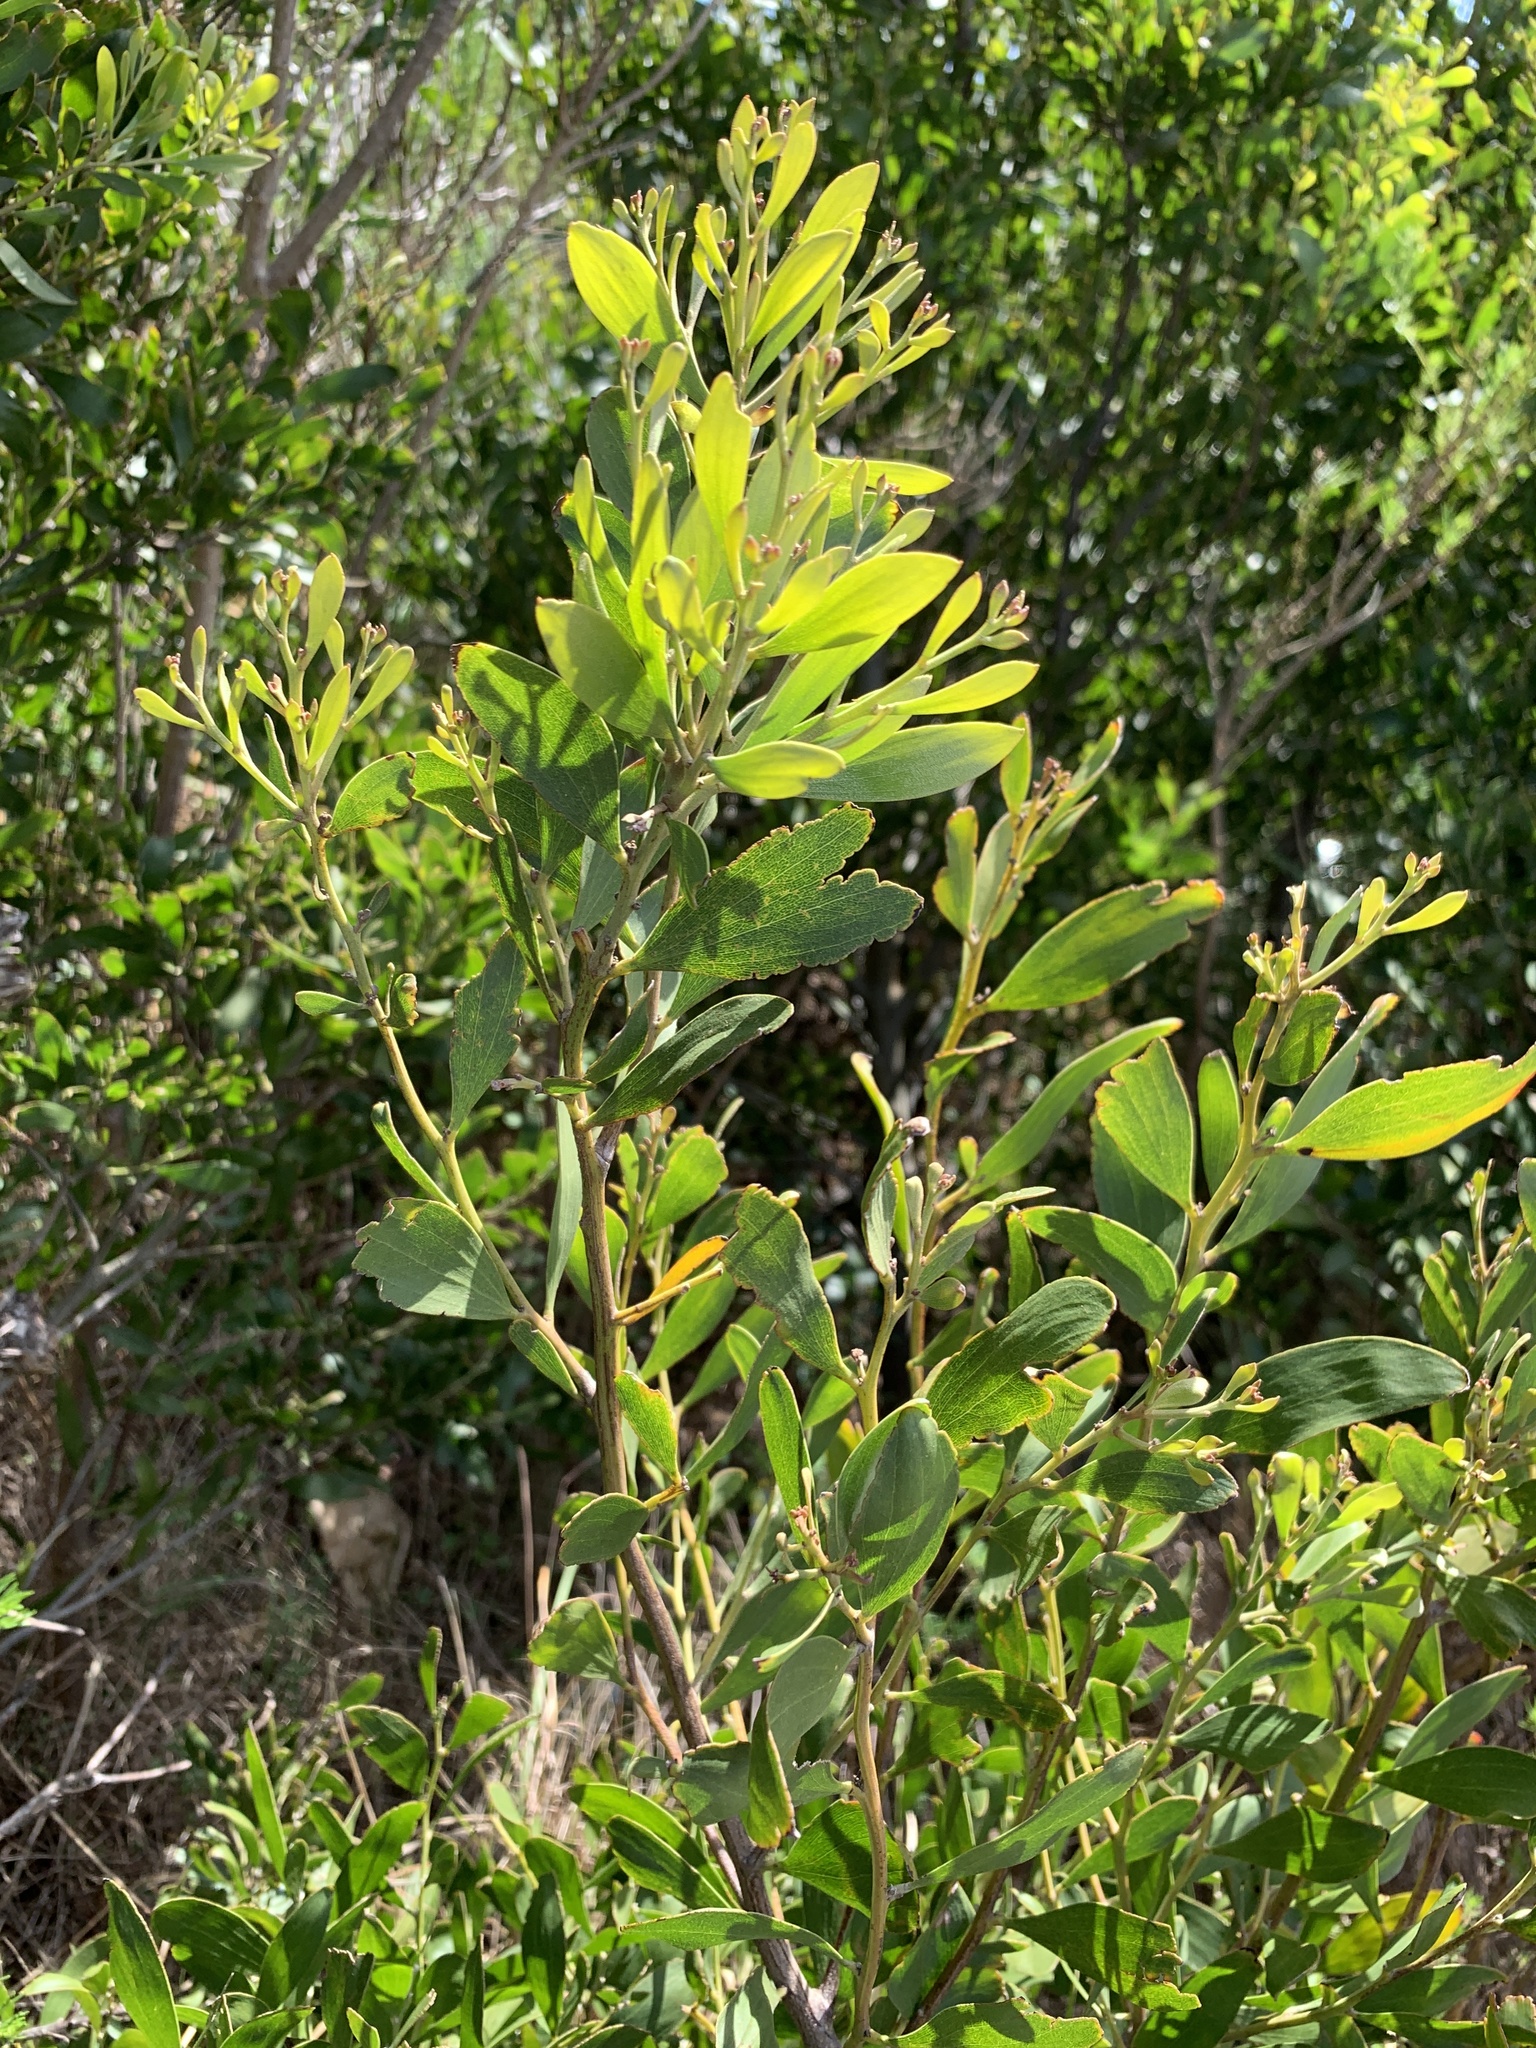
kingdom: Plantae
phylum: Tracheophyta
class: Magnoliopsida
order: Fabales
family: Fabaceae
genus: Acacia
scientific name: Acacia cyclops
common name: Coastal wattle
